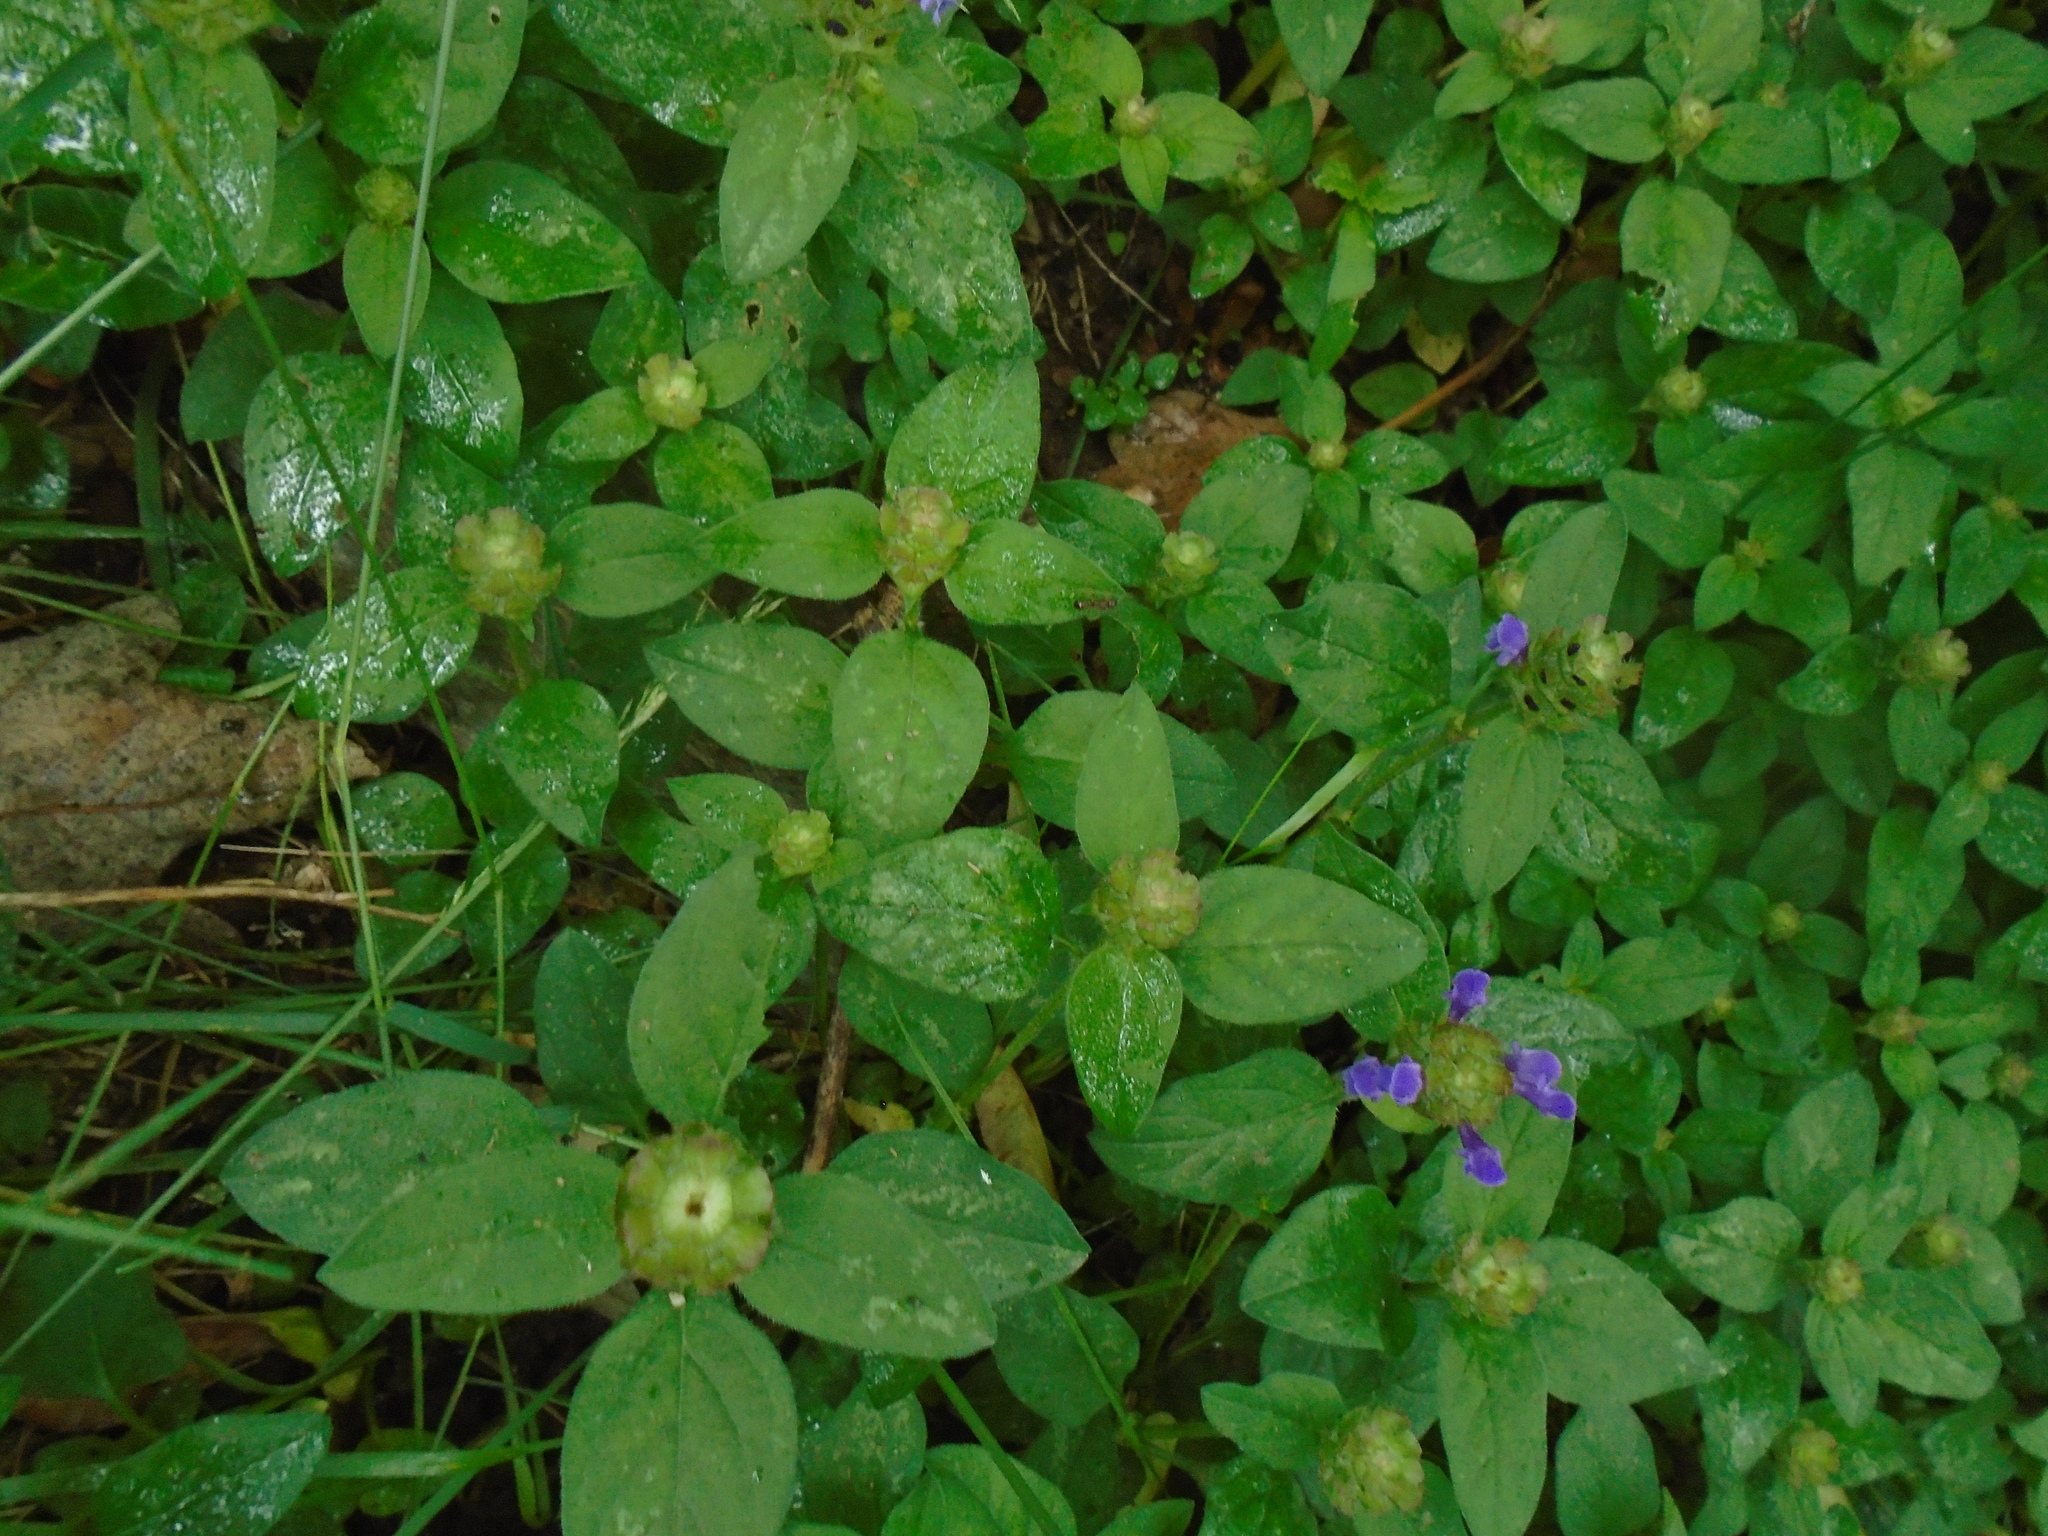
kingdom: Plantae
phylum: Tracheophyta
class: Magnoliopsida
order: Lamiales
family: Lamiaceae
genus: Prunella
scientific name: Prunella vulgaris
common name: Heal-all
